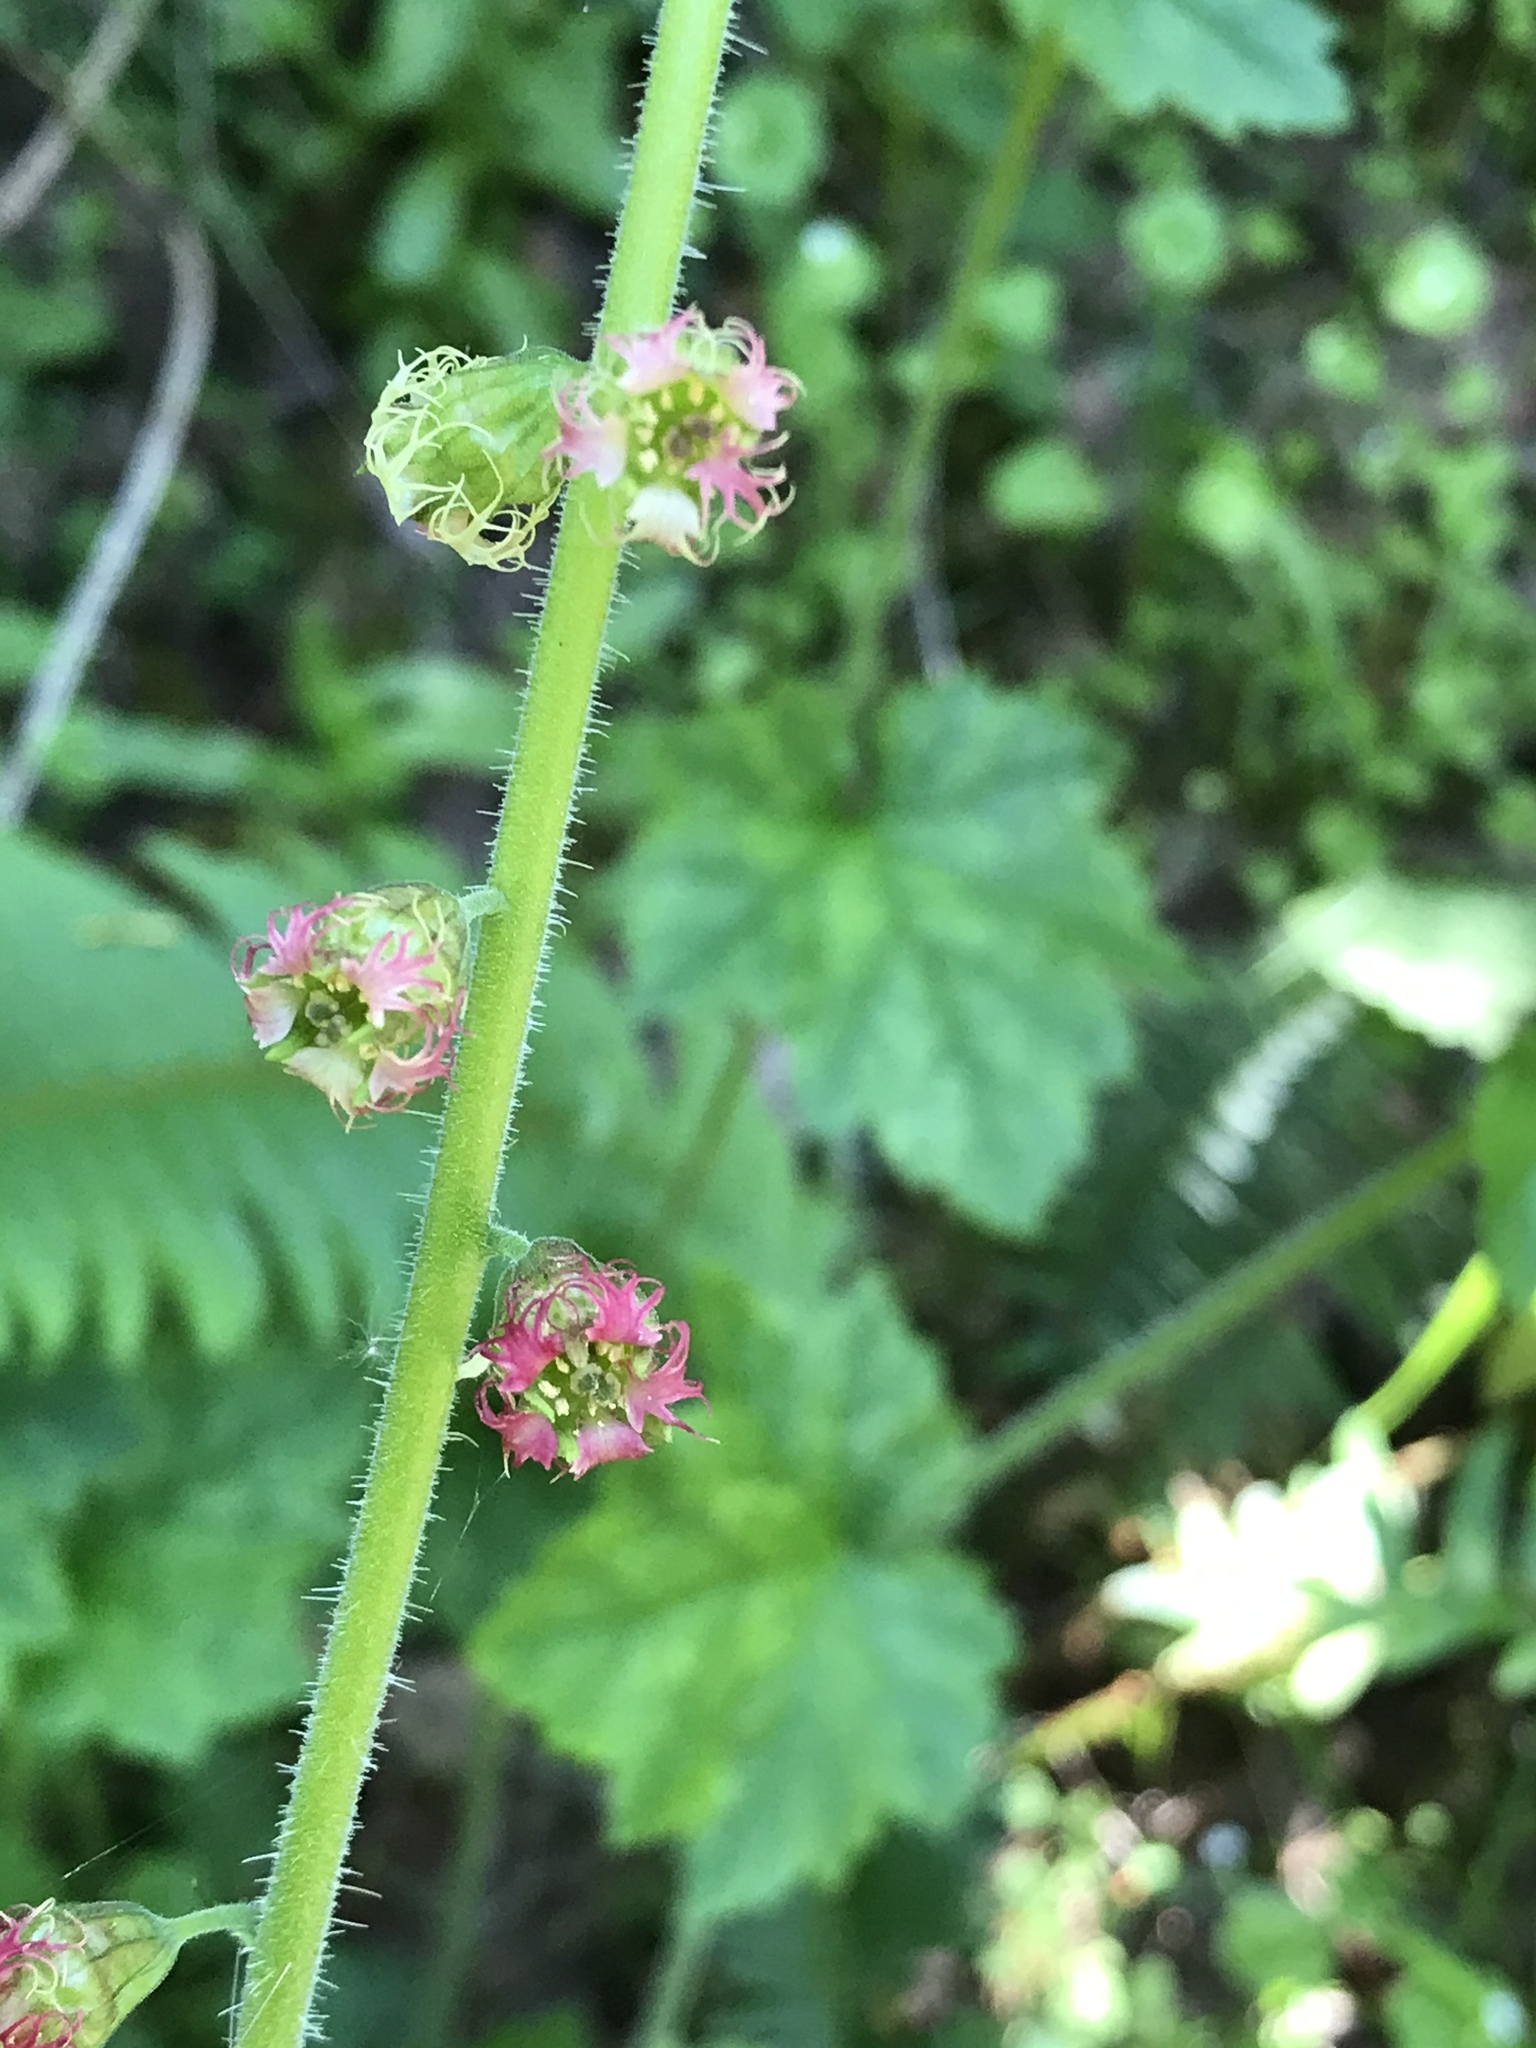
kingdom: Plantae
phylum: Tracheophyta
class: Magnoliopsida
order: Saxifragales
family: Saxifragaceae
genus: Tellima
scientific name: Tellima grandiflora
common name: Fringecups
